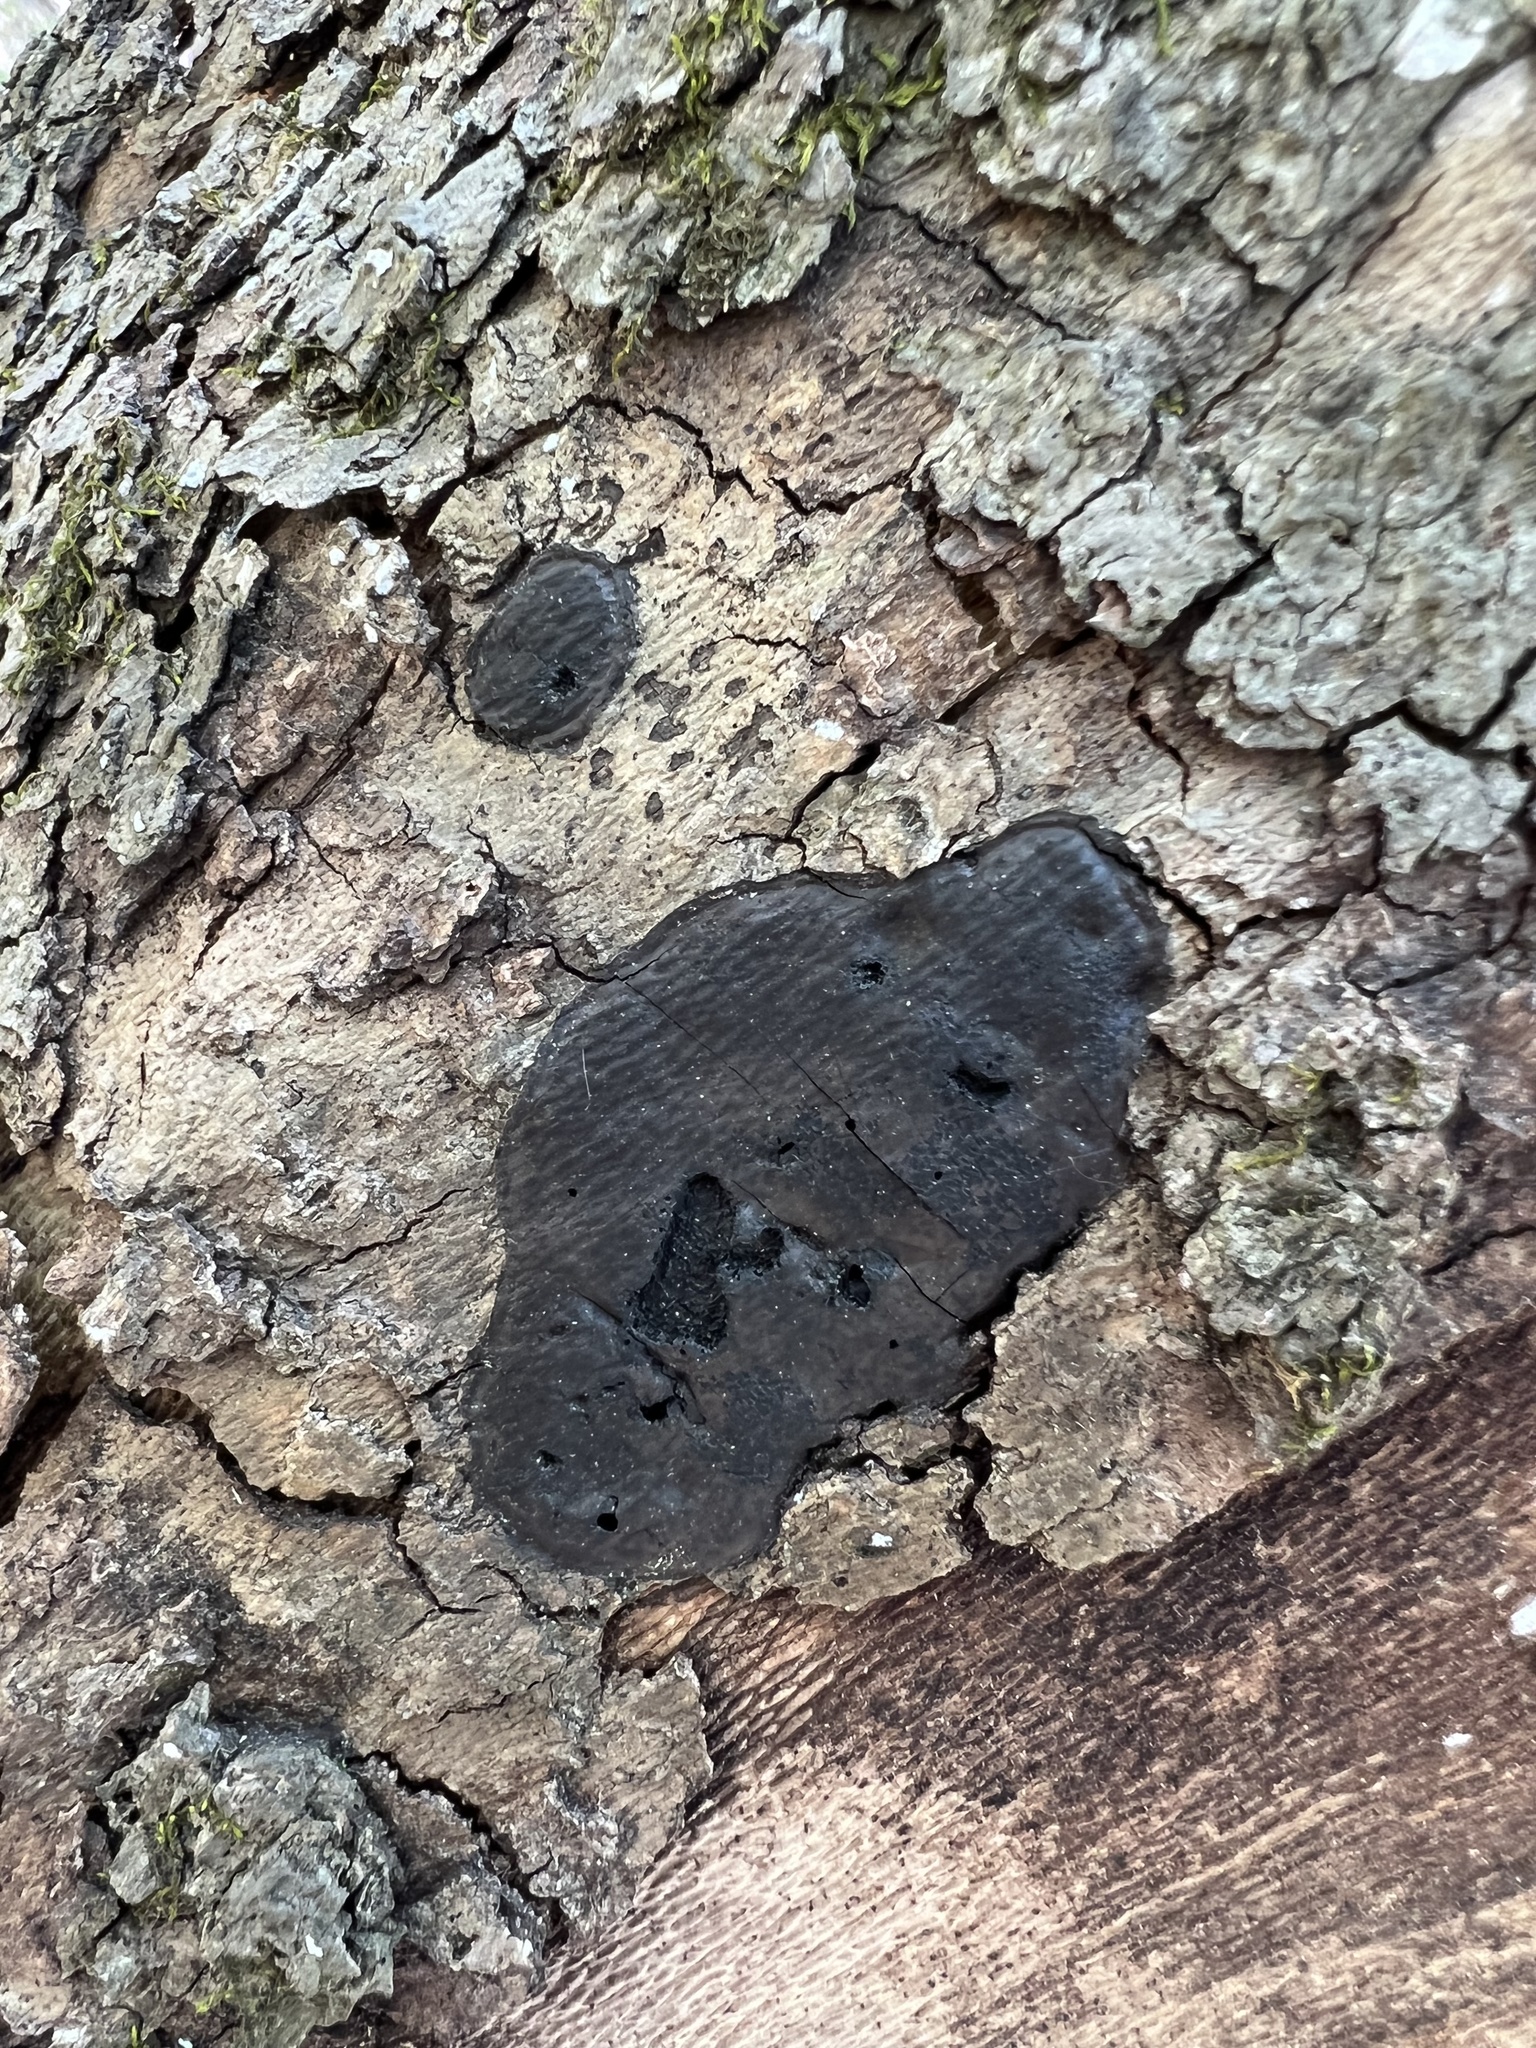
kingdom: Fungi
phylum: Ascomycota
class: Sordariomycetes
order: Xylariales
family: Diatrypaceae
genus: Diatrype
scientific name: Diatrype stigma
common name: Common tarcrust
